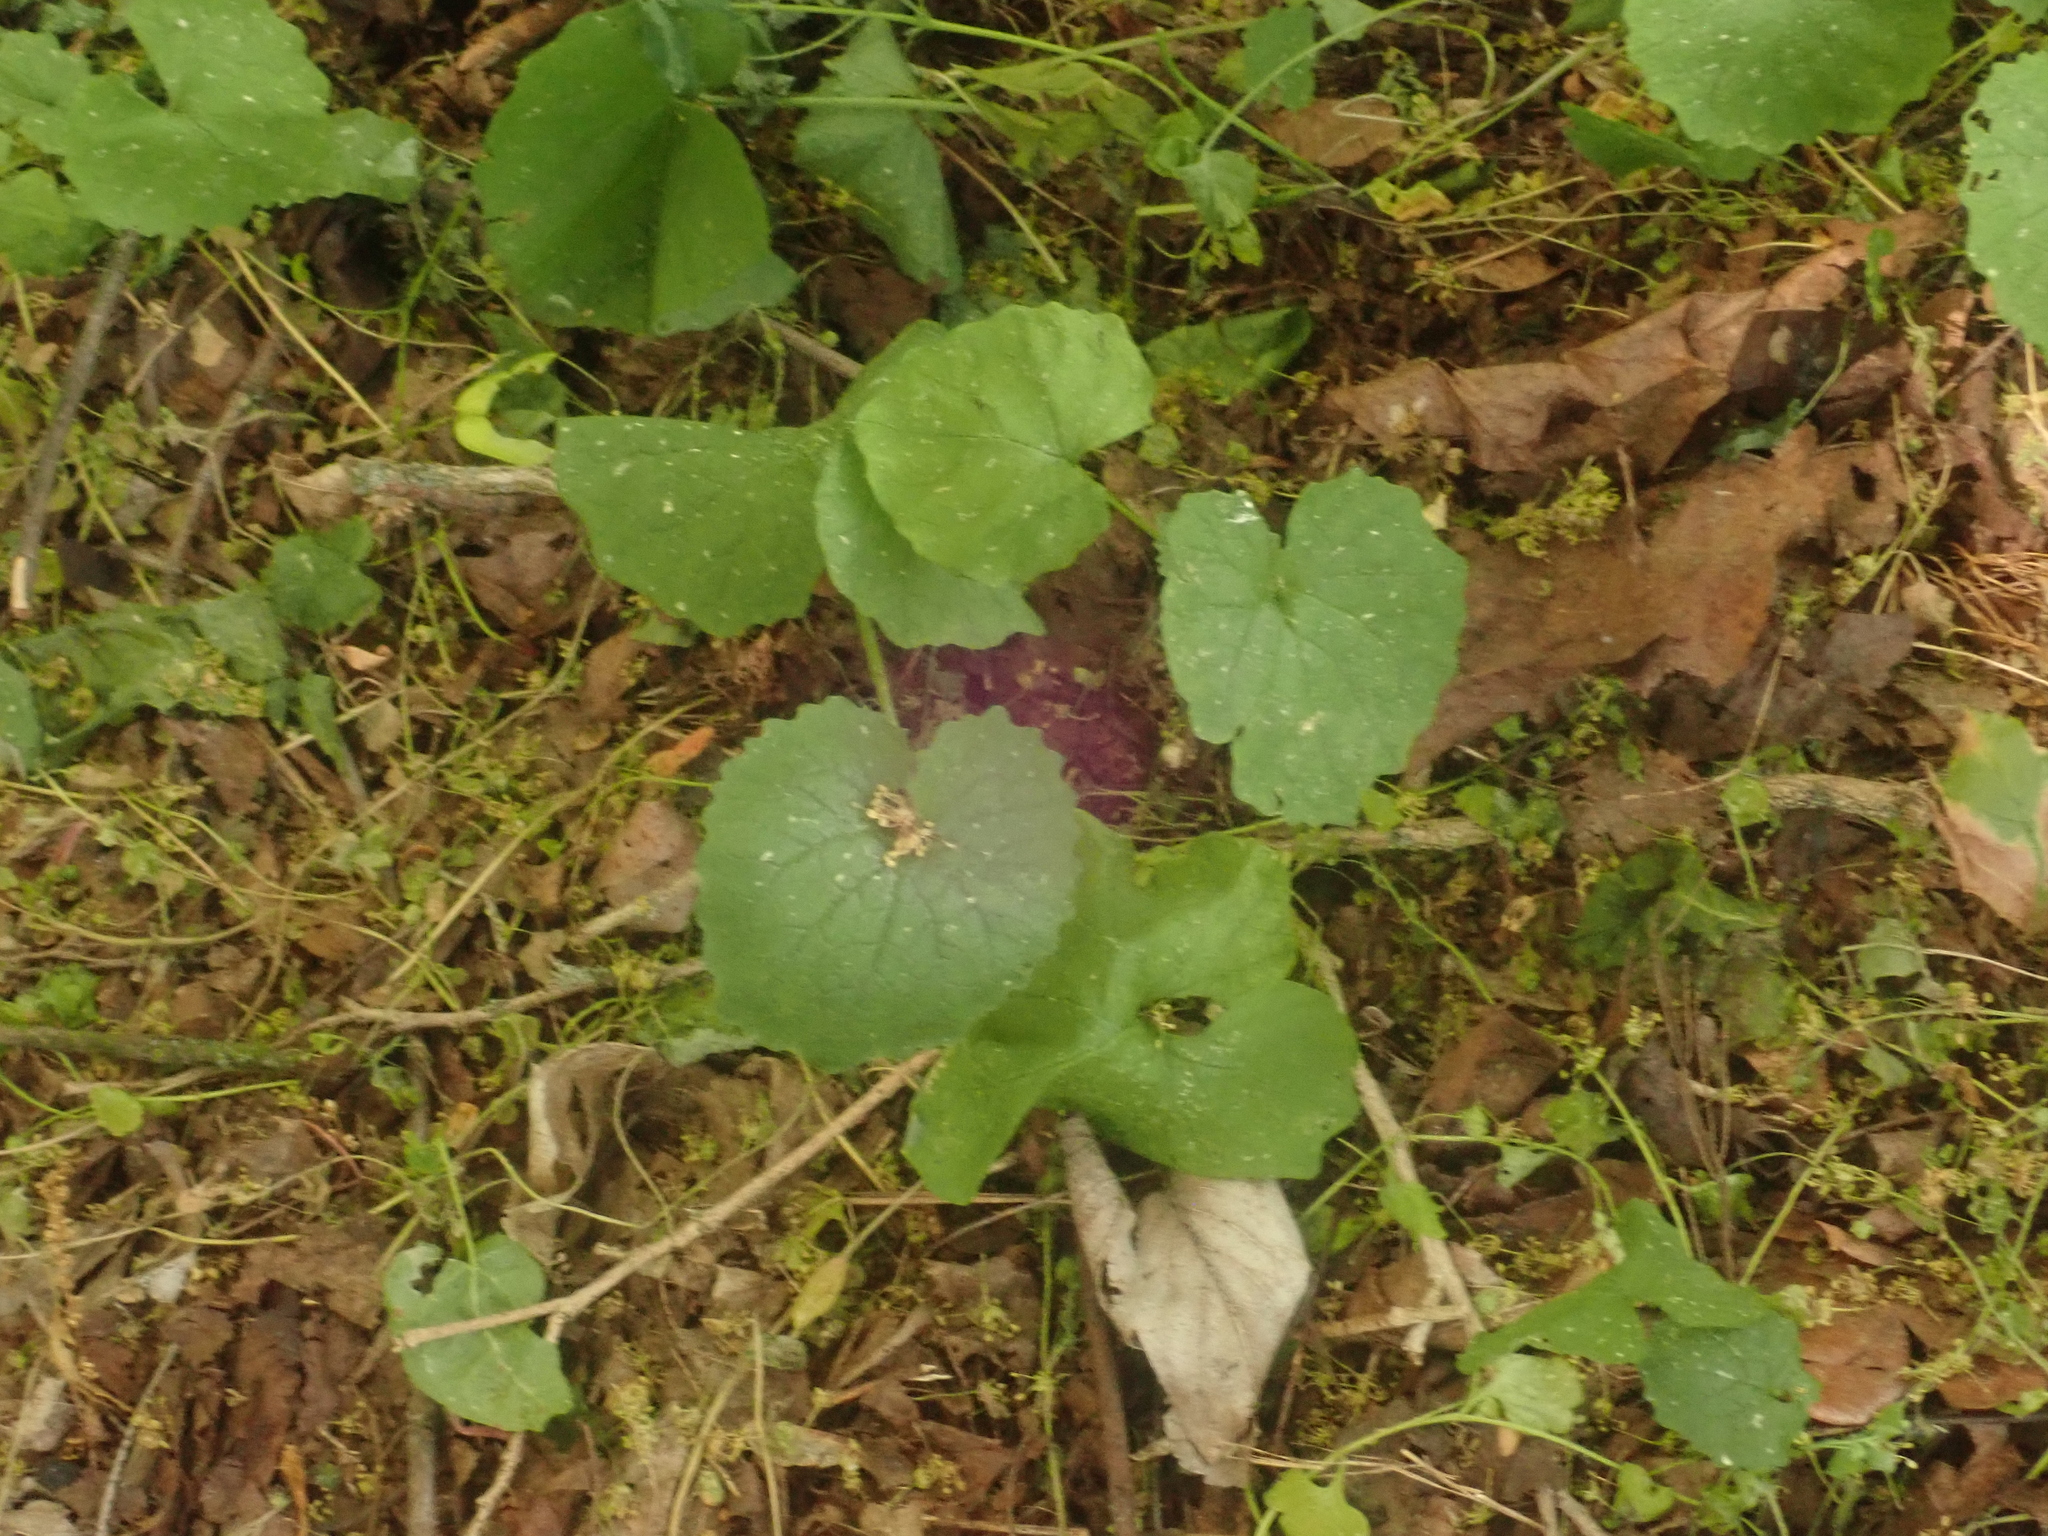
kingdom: Plantae
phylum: Tracheophyta
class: Magnoliopsida
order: Brassicales
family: Brassicaceae
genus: Alliaria
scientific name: Alliaria petiolata
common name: Garlic mustard
